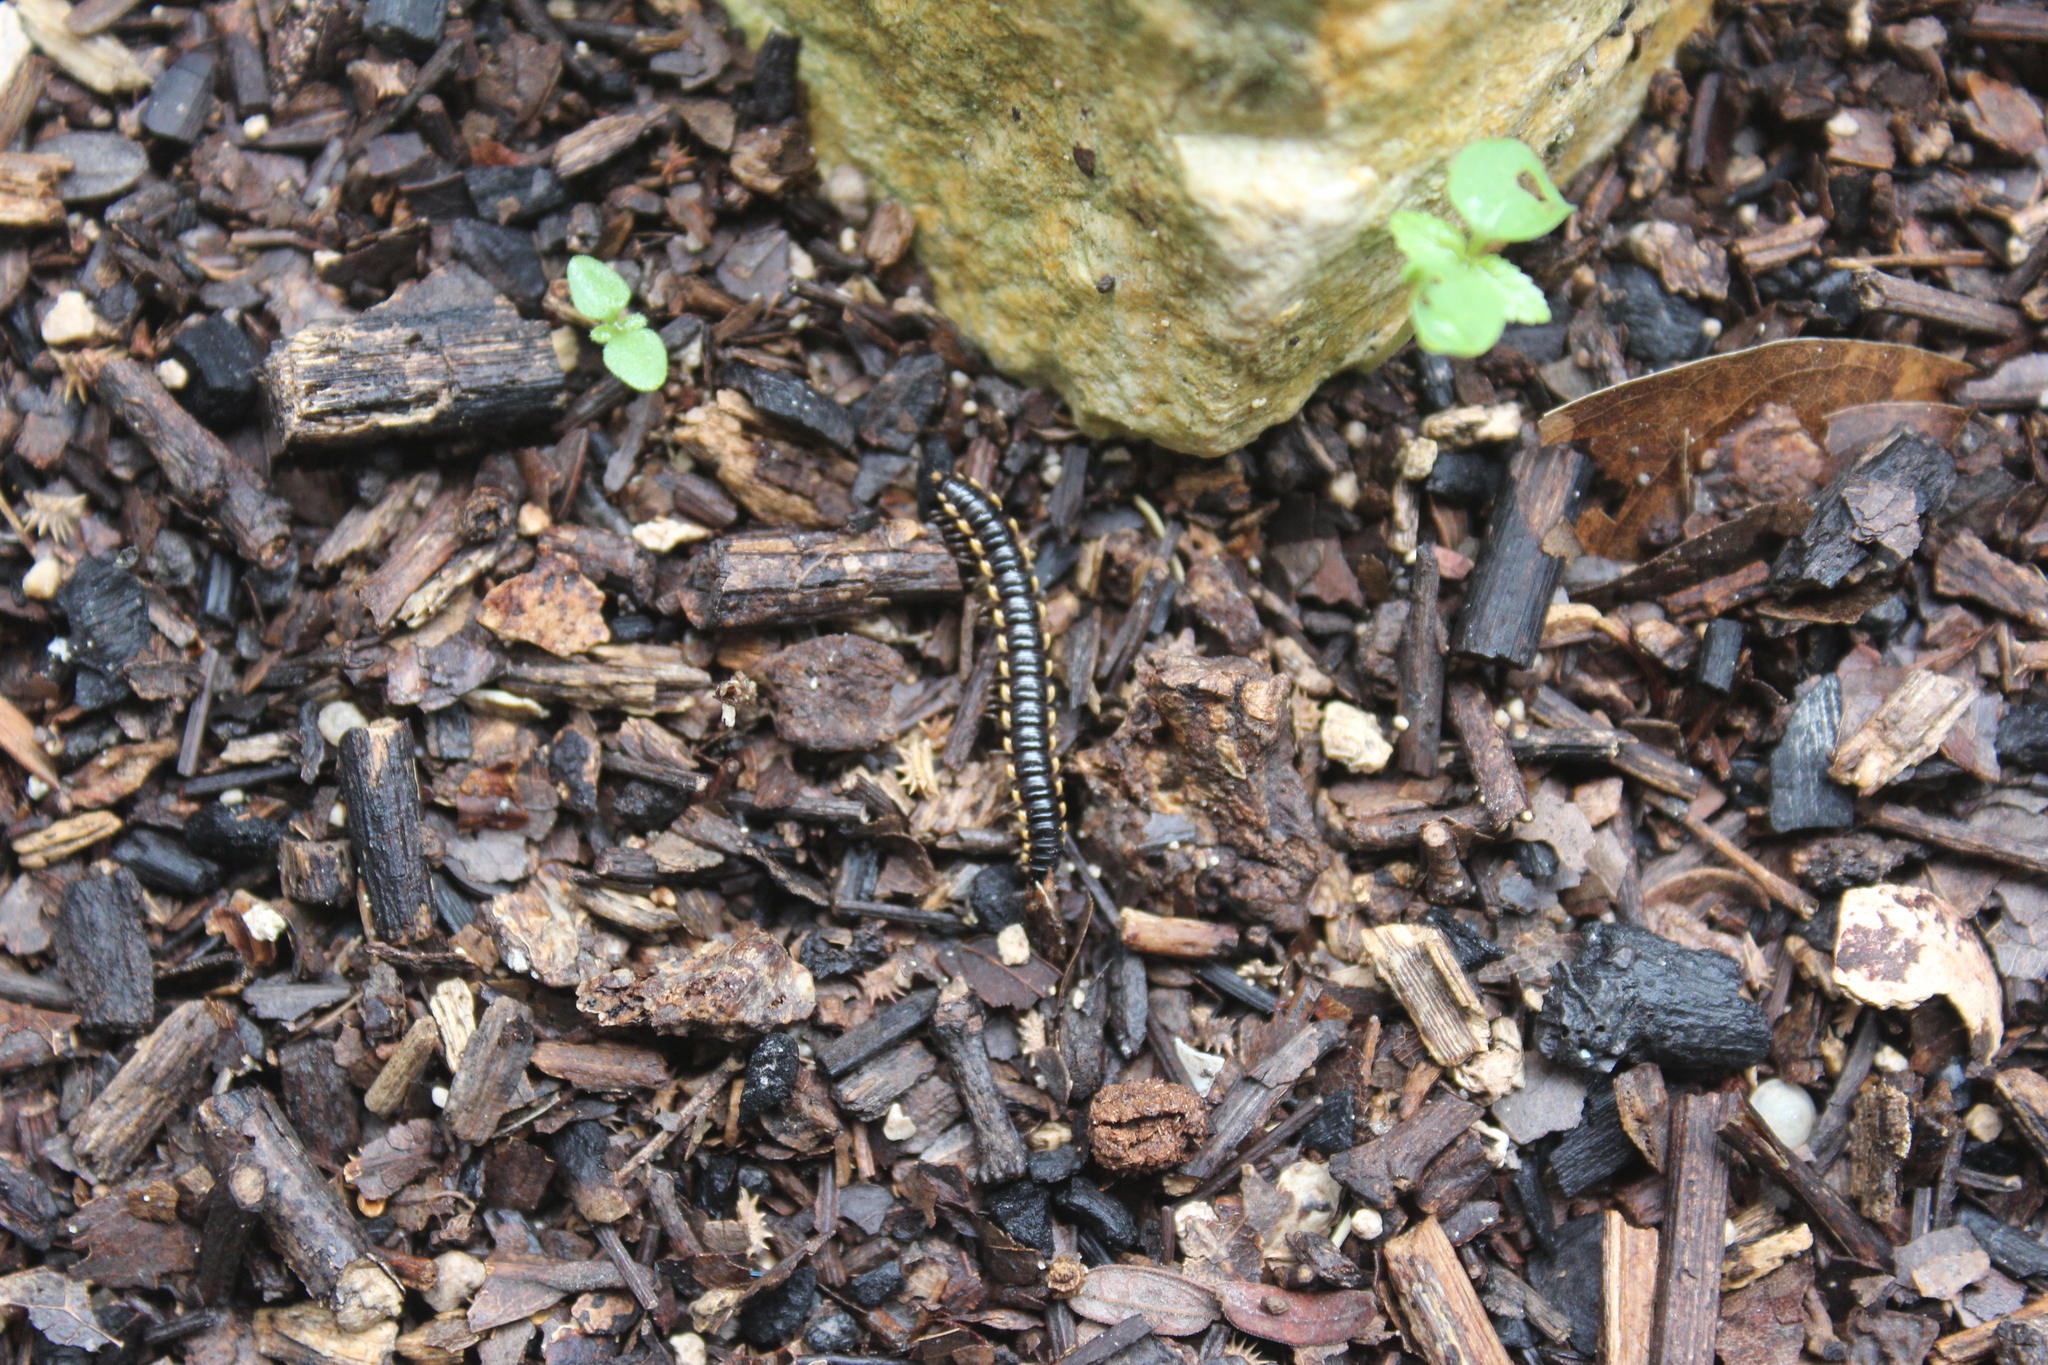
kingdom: Animalia
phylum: Arthropoda
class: Diplopoda
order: Polydesmida
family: Paradoxosomatidae
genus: Orthomorpha
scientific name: Orthomorpha coarctata
